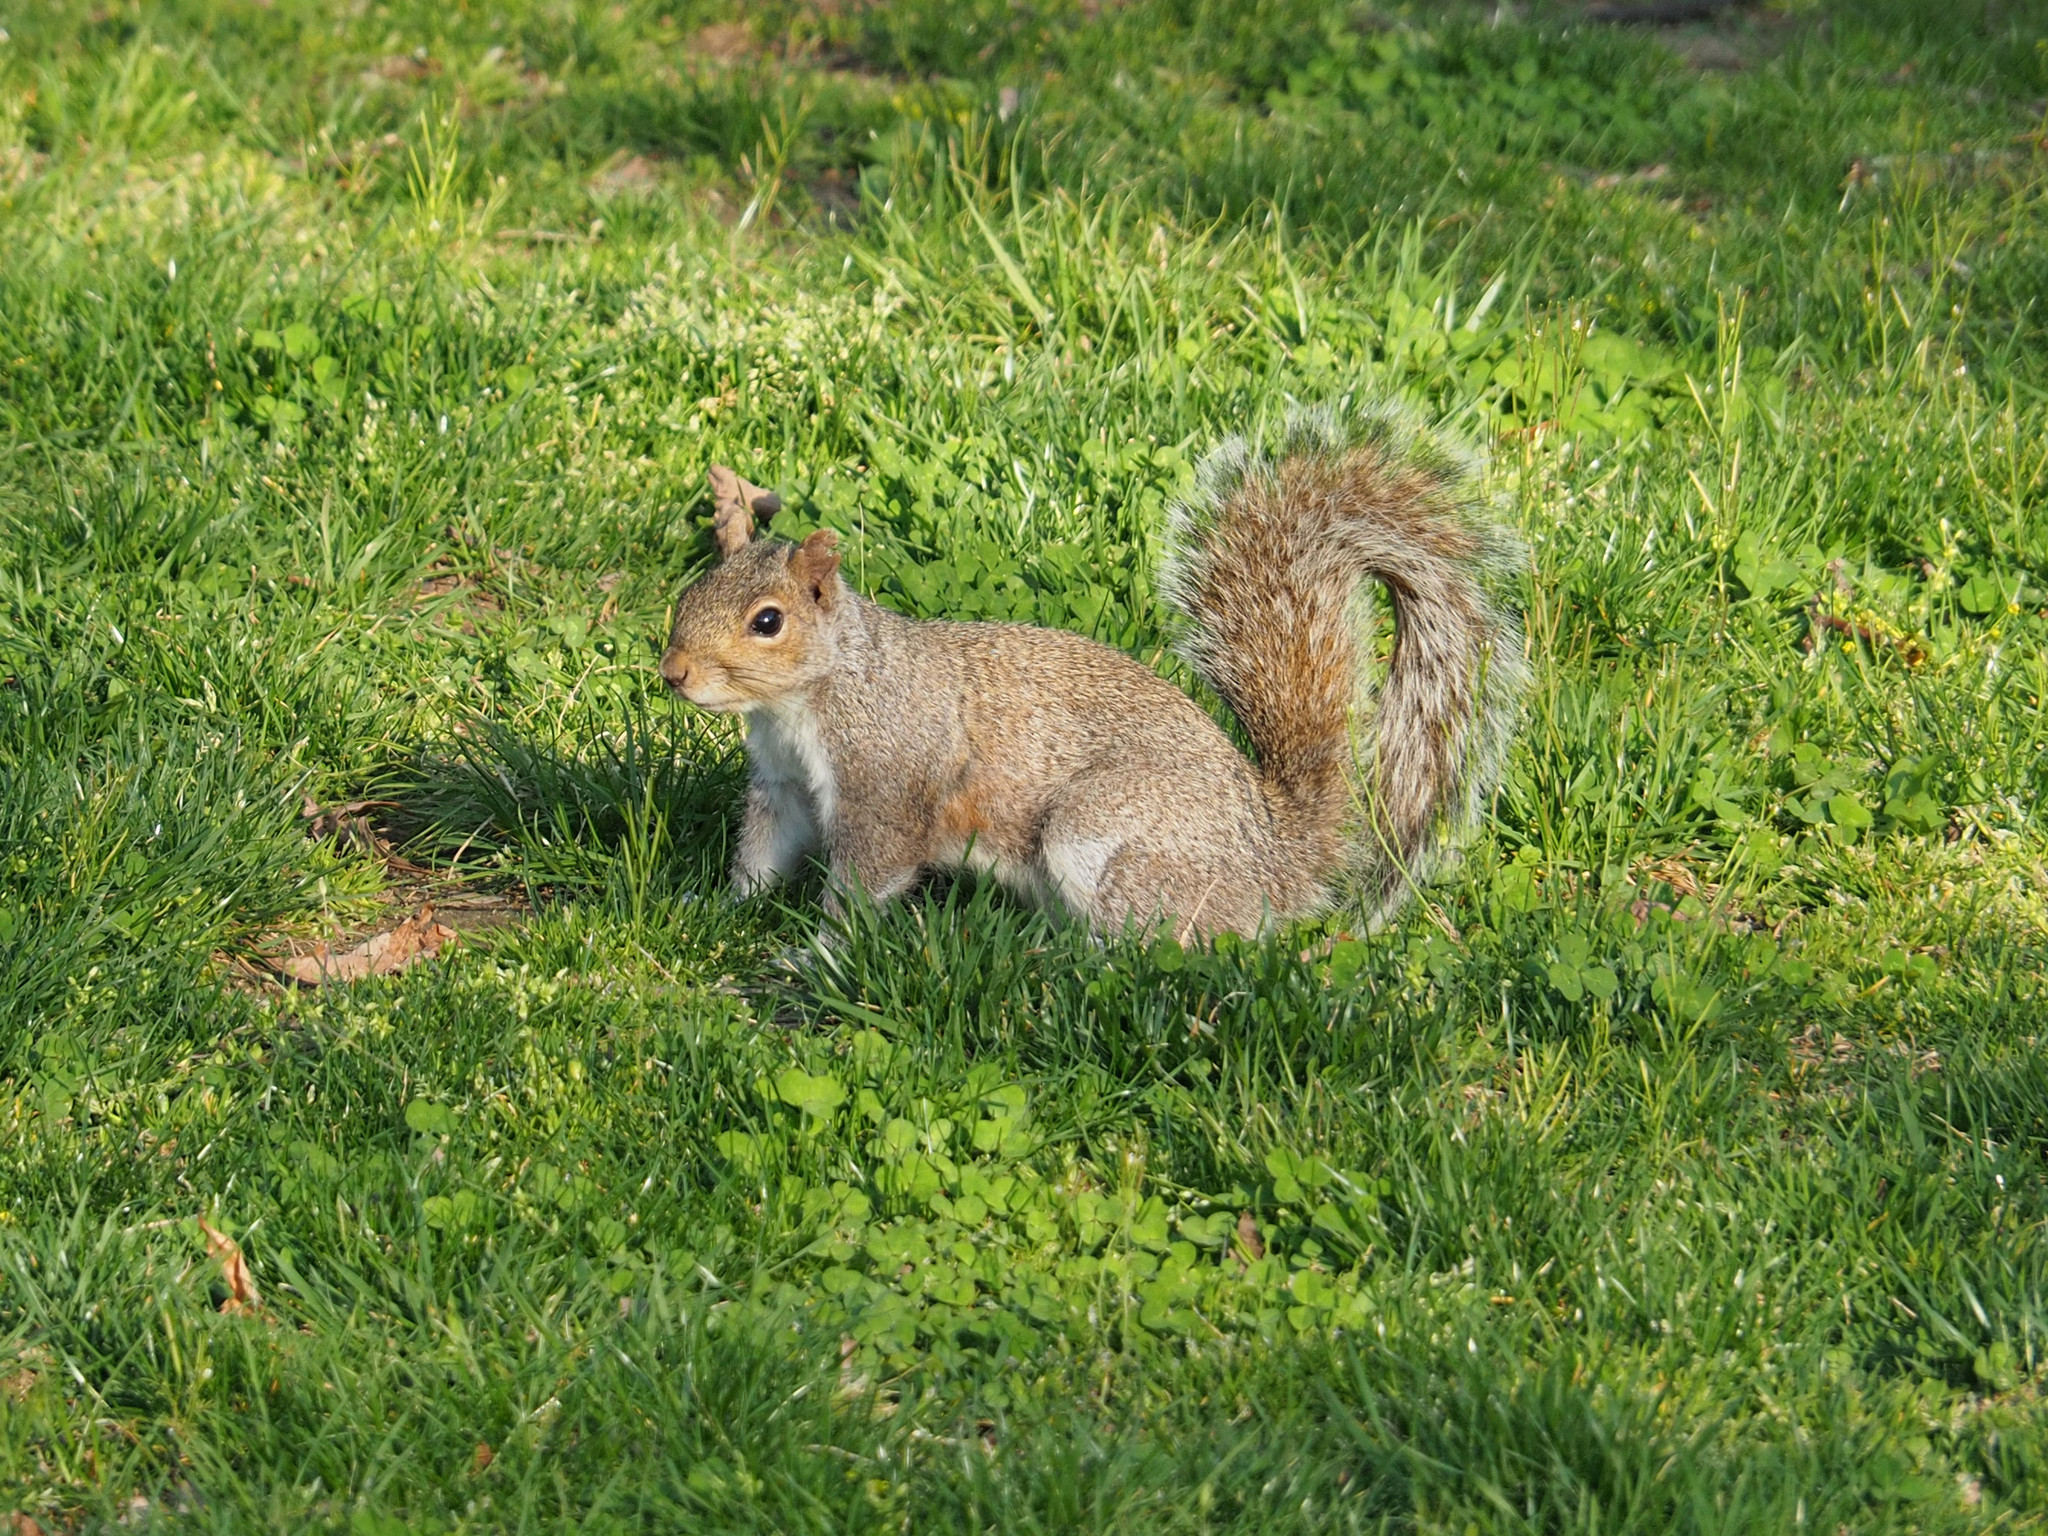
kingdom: Animalia
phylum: Chordata
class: Mammalia
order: Rodentia
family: Sciuridae
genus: Sciurus
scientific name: Sciurus carolinensis
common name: Eastern gray squirrel
